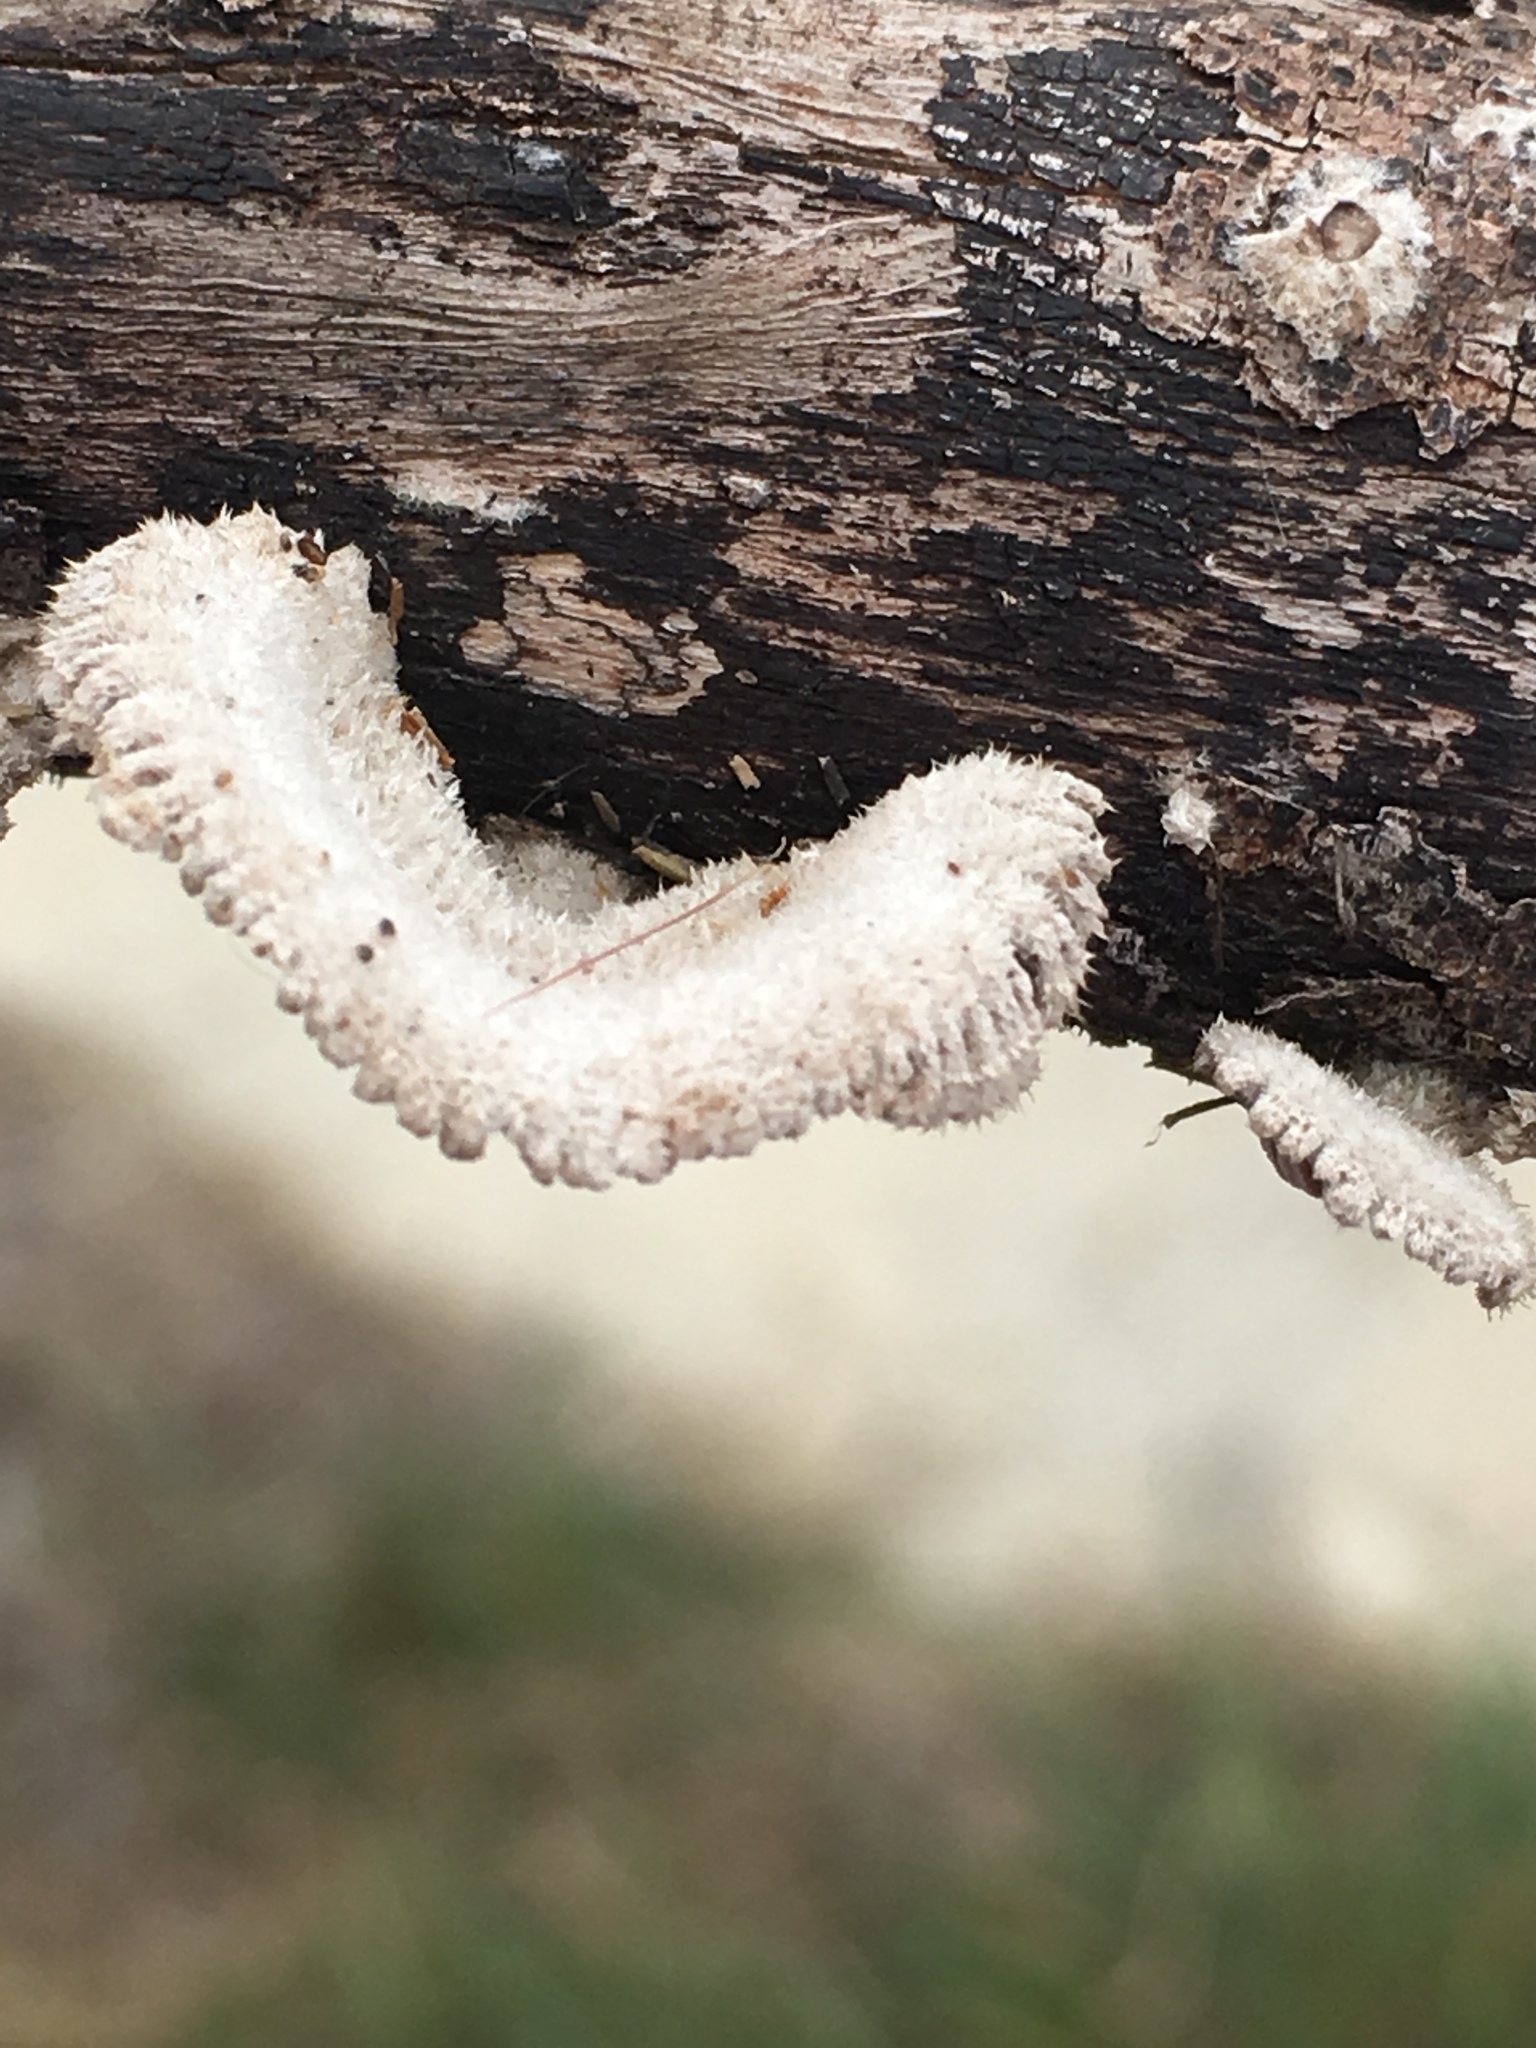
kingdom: Fungi
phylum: Basidiomycota
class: Agaricomycetes
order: Agaricales
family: Schizophyllaceae
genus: Schizophyllum
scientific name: Schizophyllum commune
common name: Common porecrust
